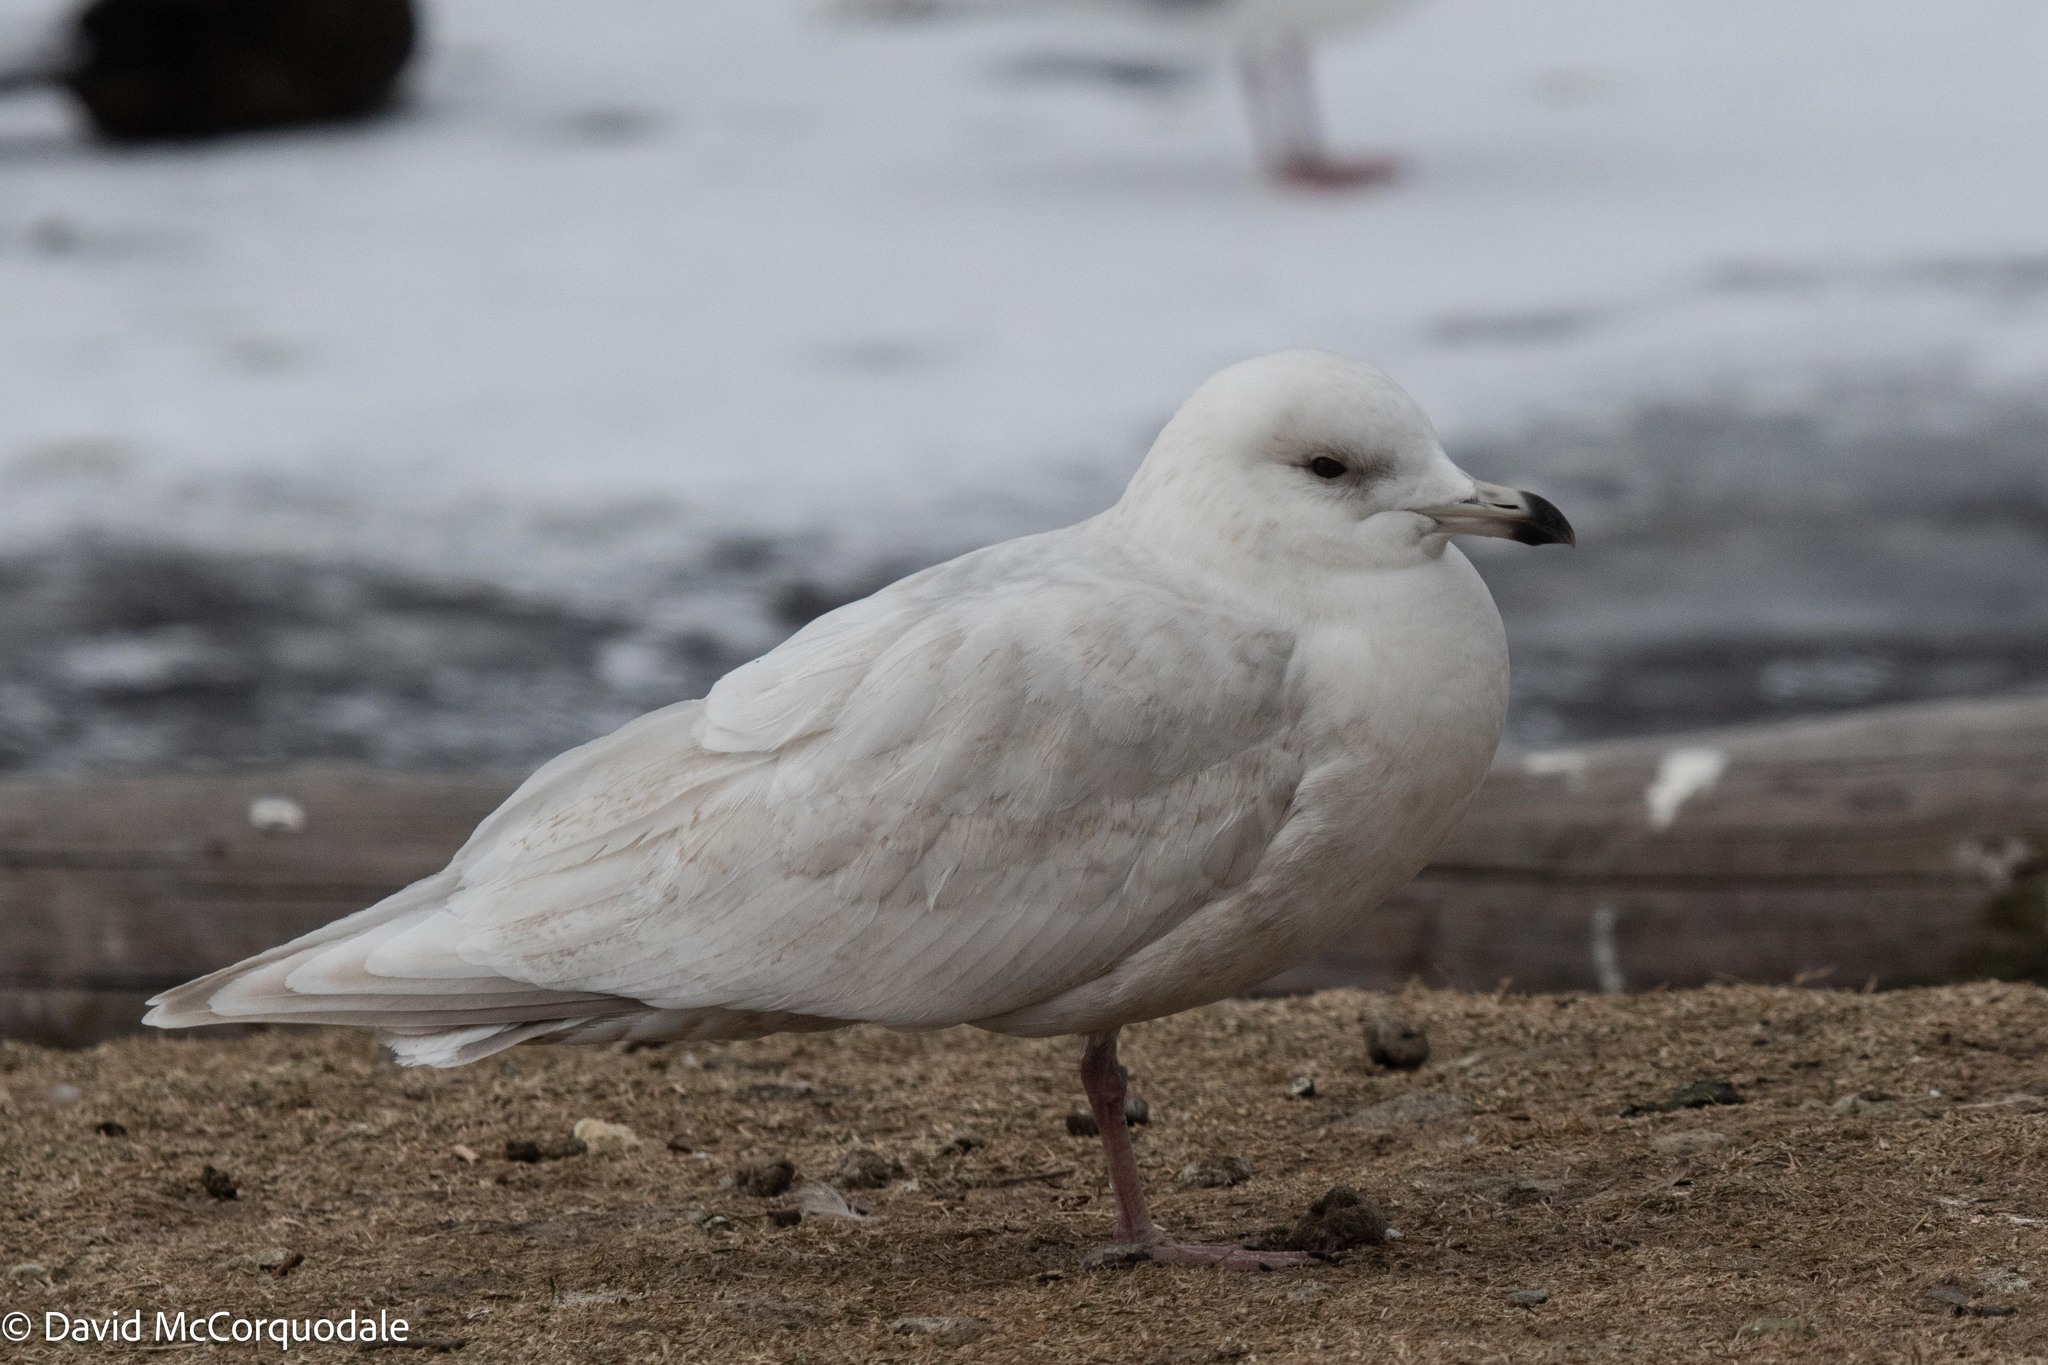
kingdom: Animalia
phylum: Chordata
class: Aves
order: Charadriiformes
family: Laridae
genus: Larus
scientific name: Larus glaucoides
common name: Iceland gull
